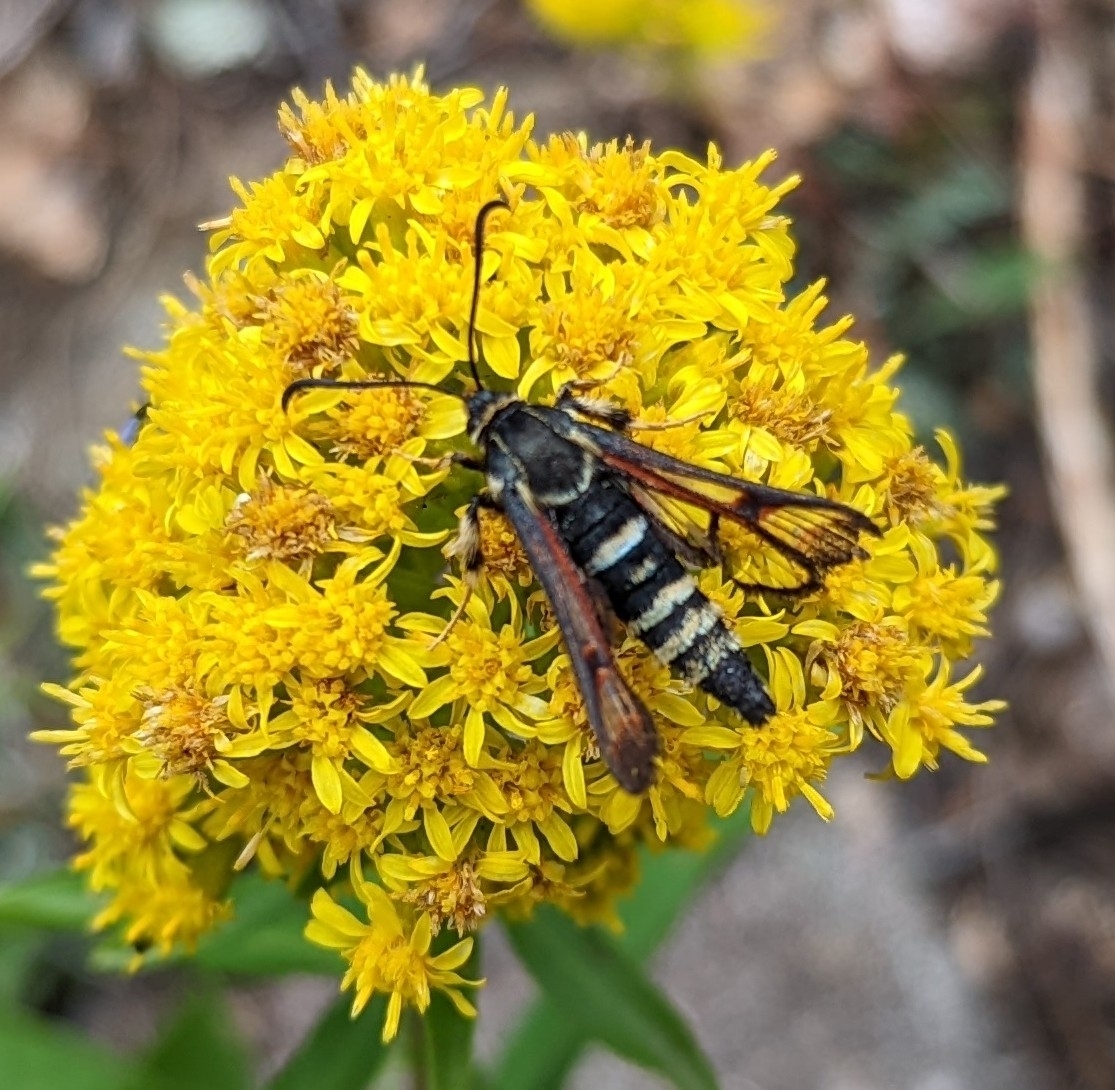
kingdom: Animalia
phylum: Arthropoda
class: Insecta
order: Lepidoptera
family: Sesiidae
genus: Albuna
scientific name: Albuna pyramidalis
